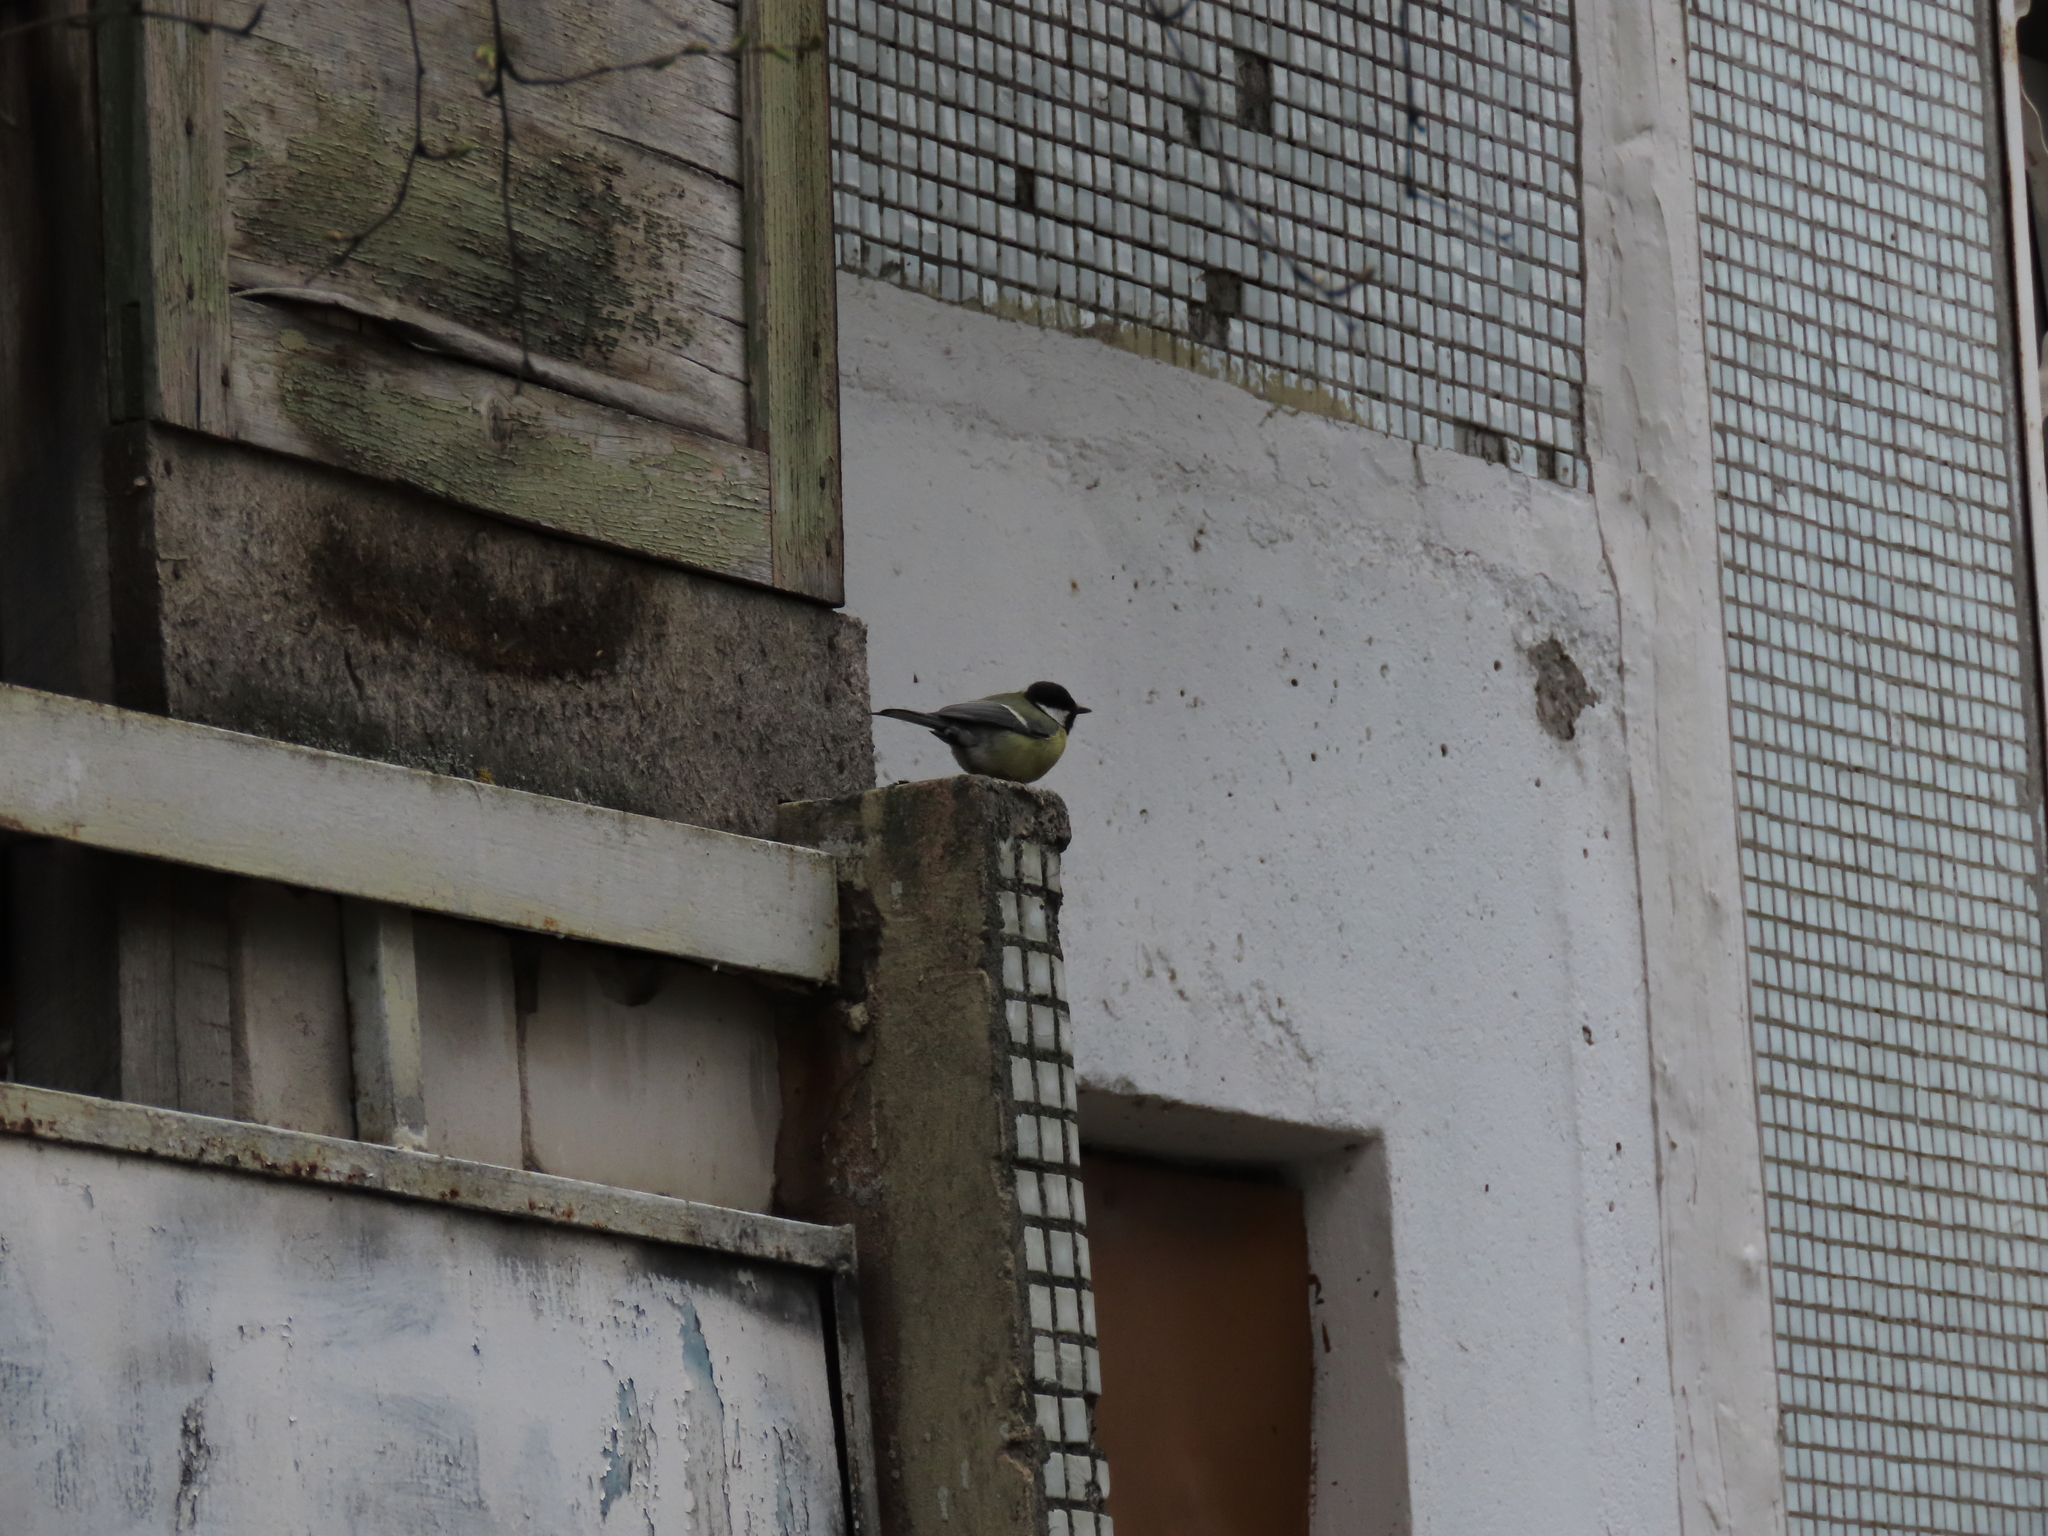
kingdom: Animalia
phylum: Chordata
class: Aves
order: Passeriformes
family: Paridae
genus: Parus
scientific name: Parus major
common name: Great tit
